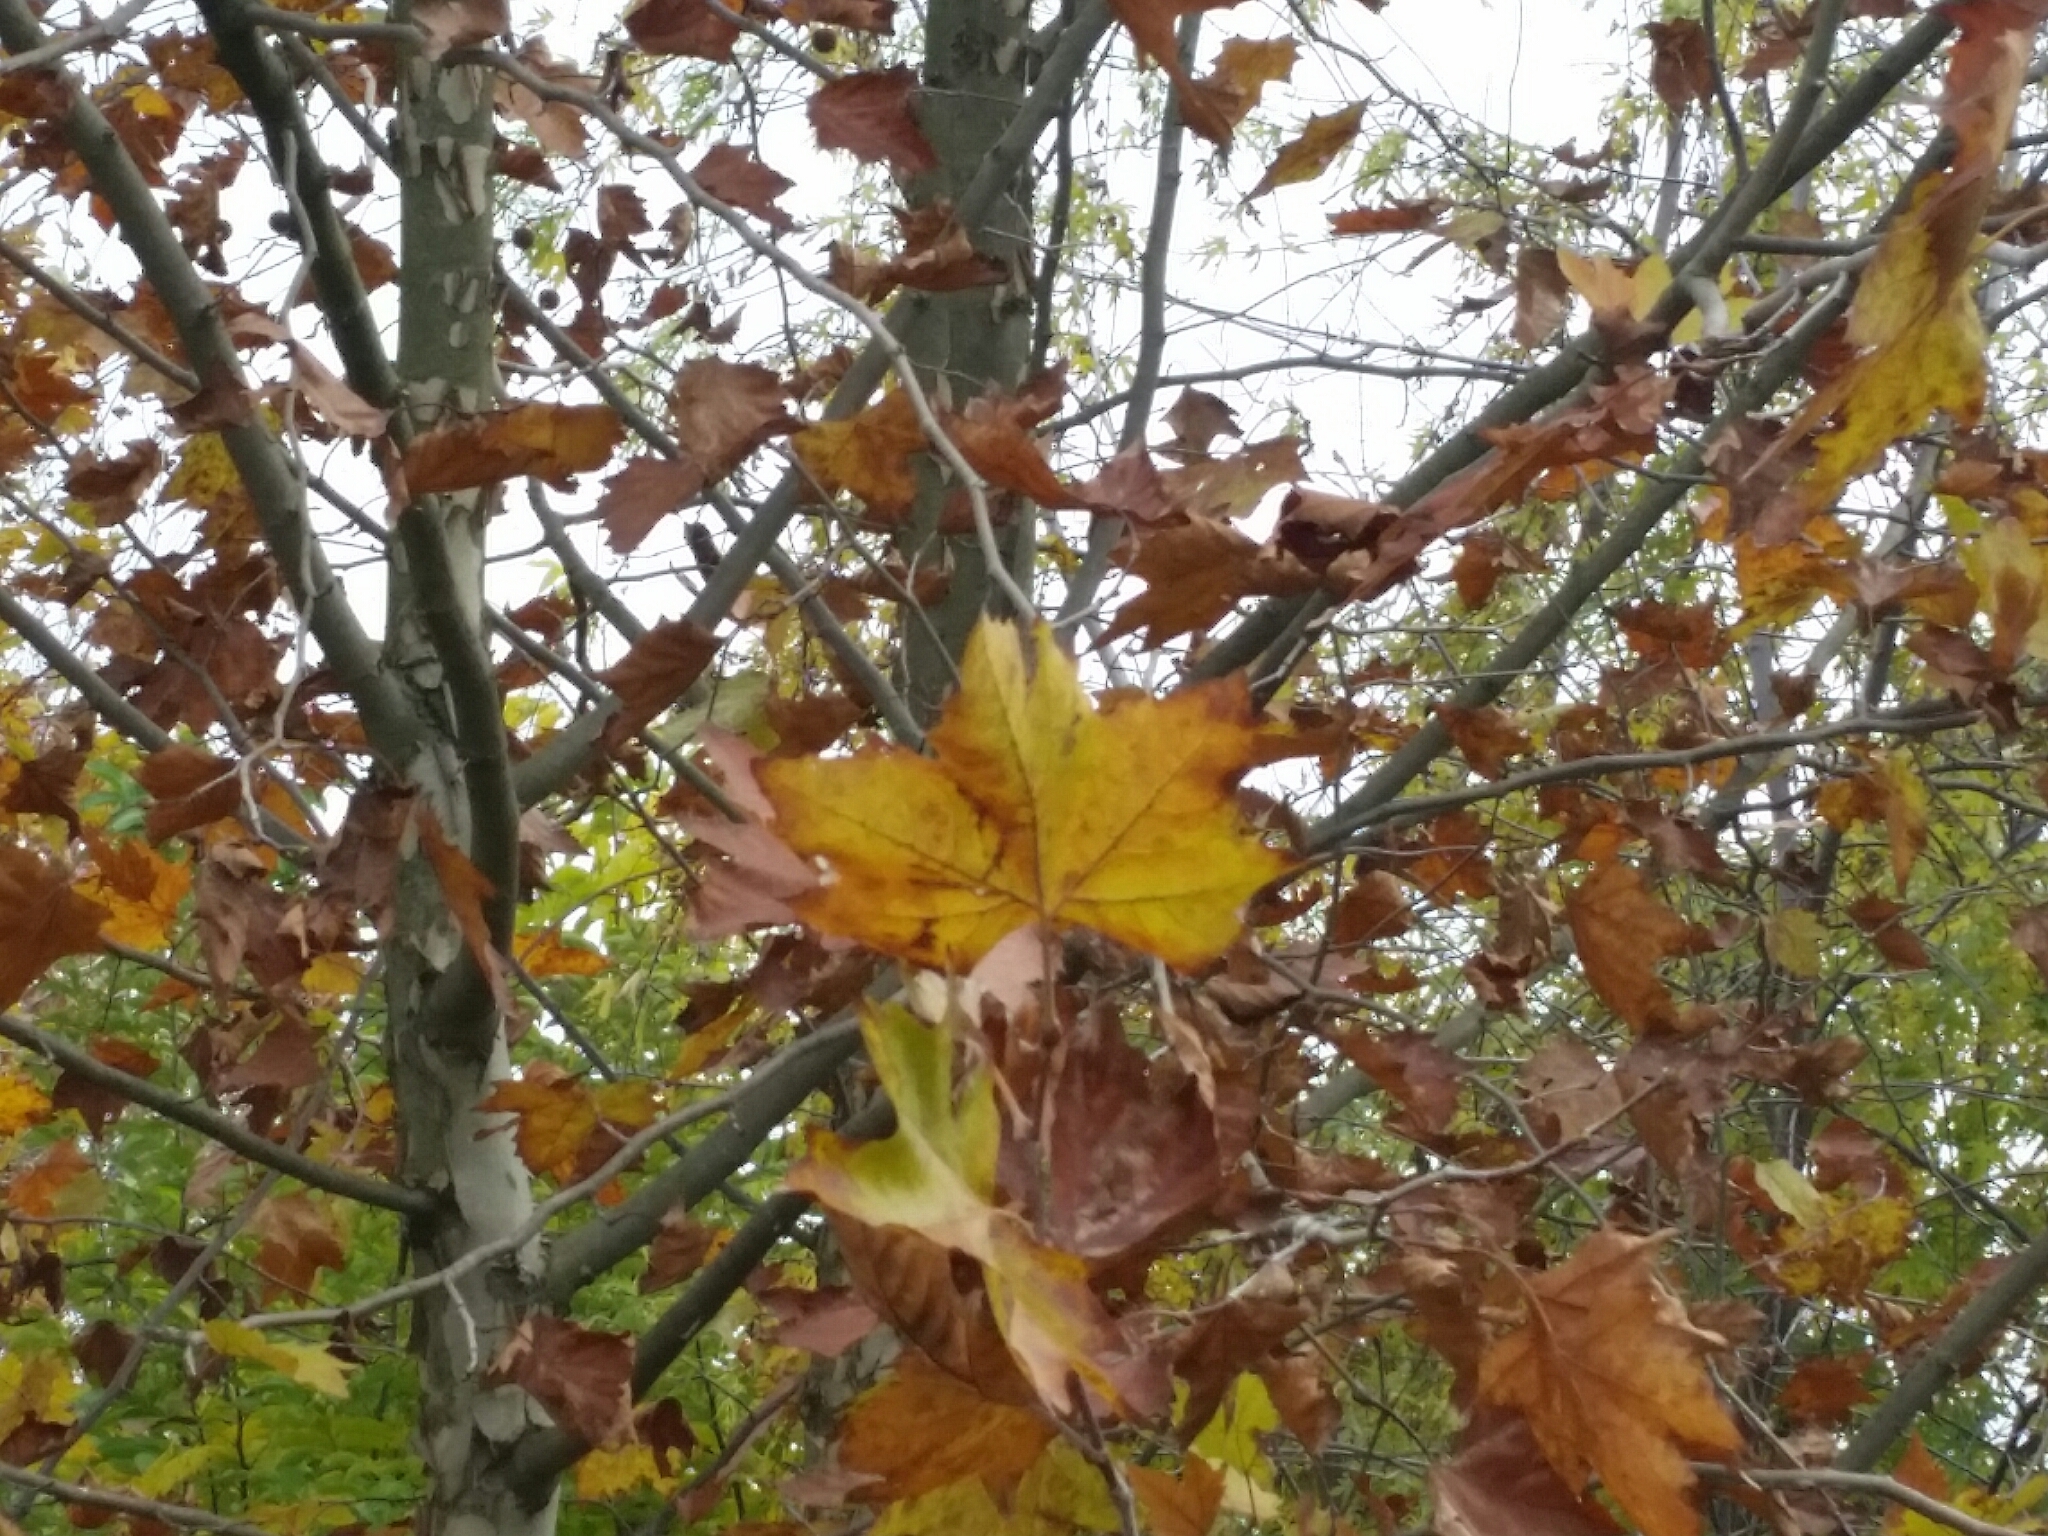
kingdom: Plantae
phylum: Tracheophyta
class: Magnoliopsida
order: Proteales
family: Platanaceae
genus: Platanus
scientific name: Platanus hispanica
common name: London plane
